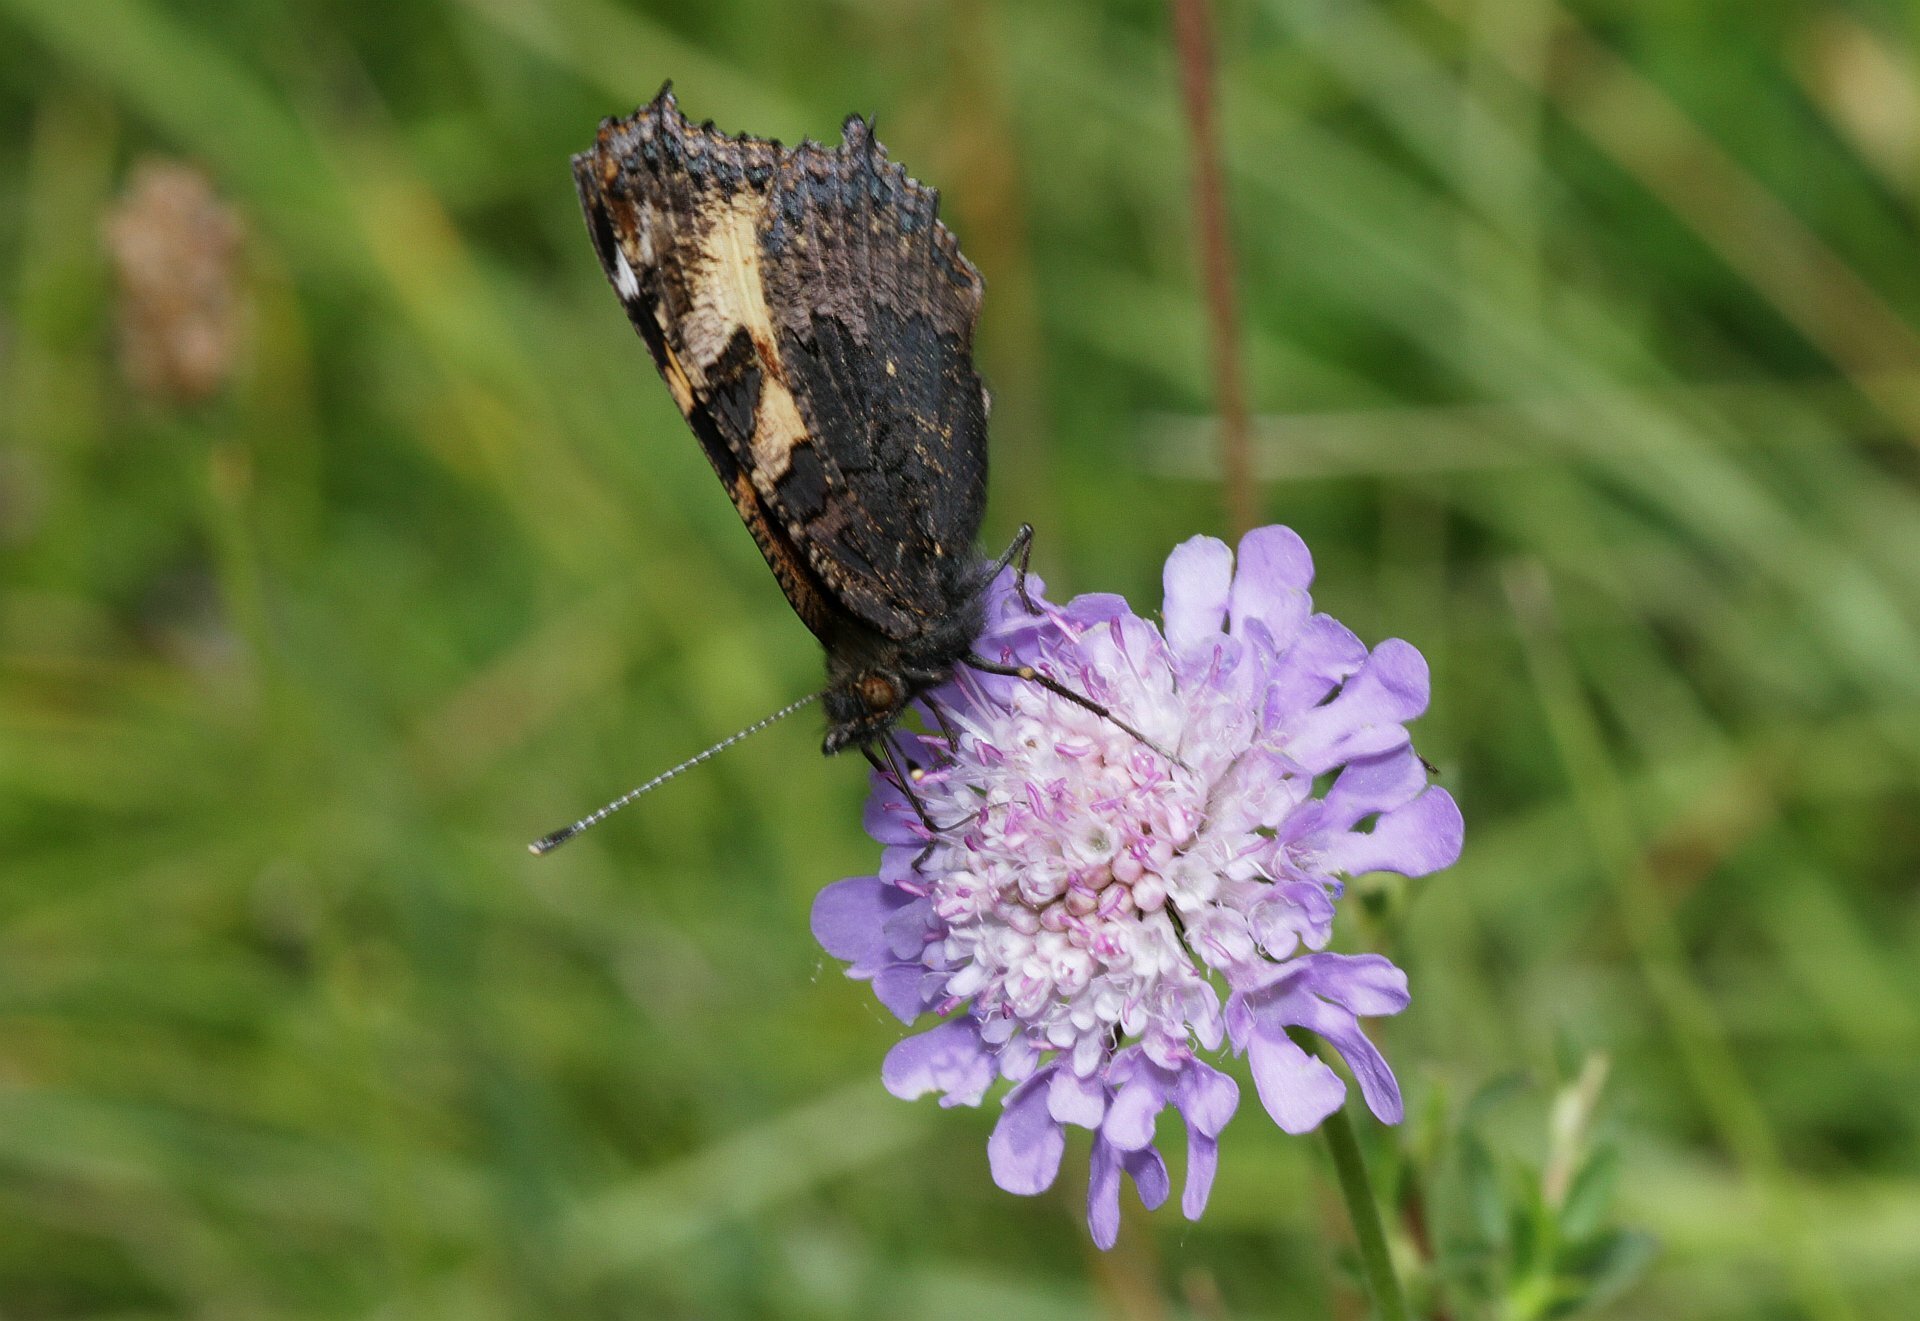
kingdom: Animalia
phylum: Arthropoda
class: Insecta
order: Lepidoptera
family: Nymphalidae
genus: Aglais
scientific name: Aglais urticae
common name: Small tortoiseshell
